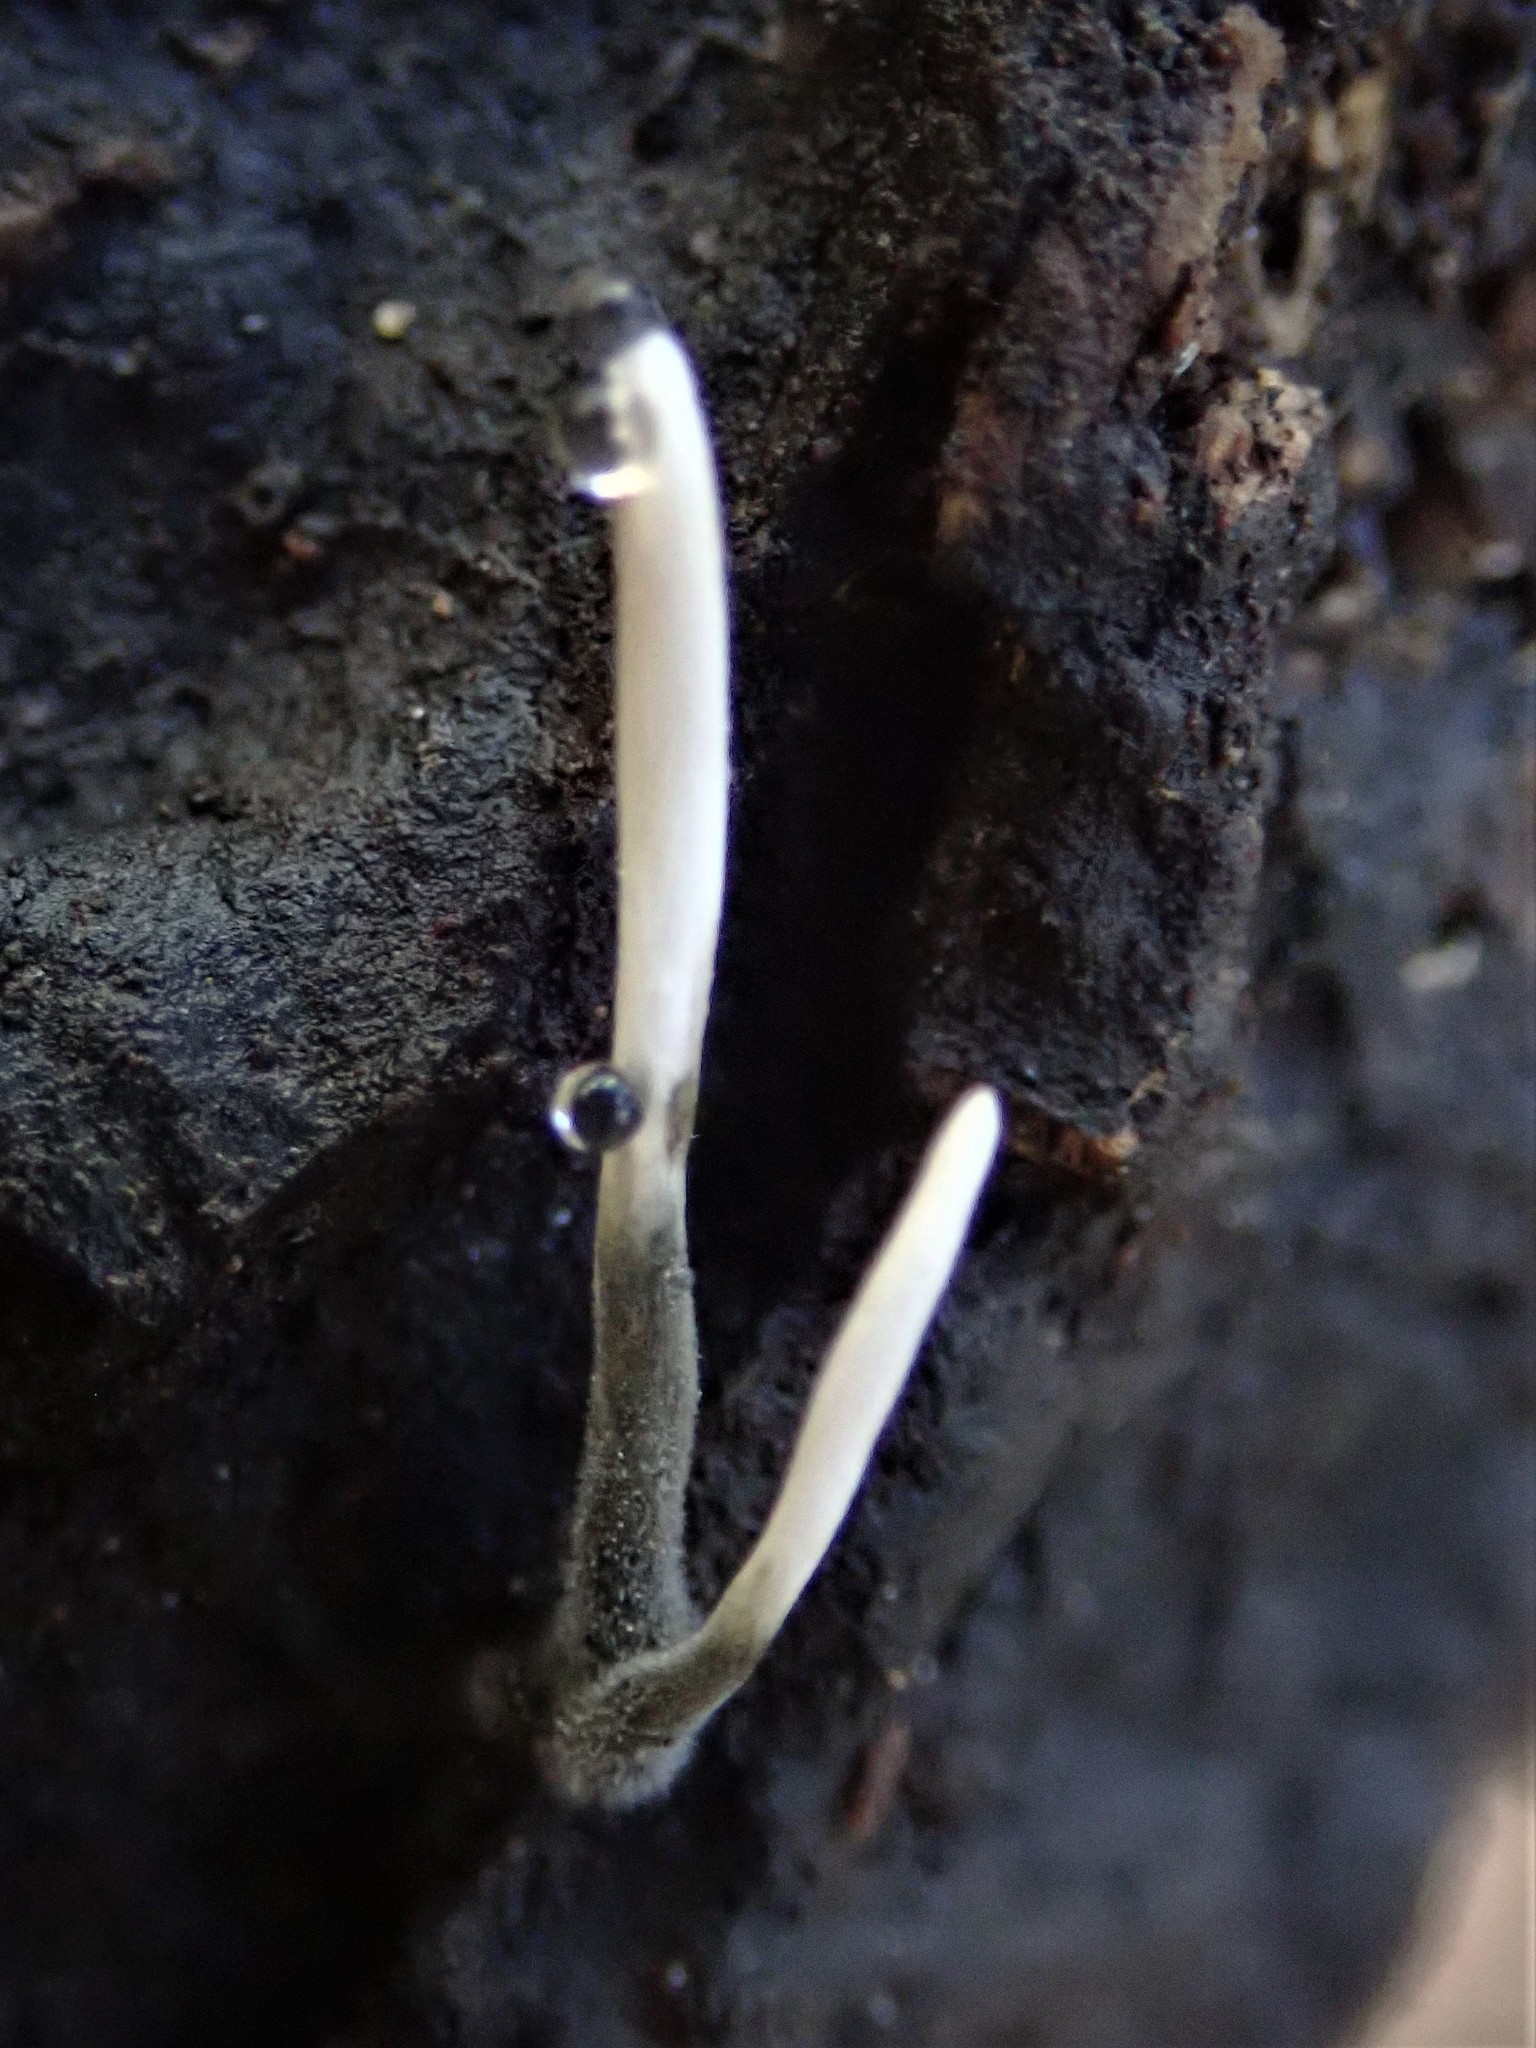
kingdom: Fungi
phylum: Ascomycota
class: Sordariomycetes
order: Xylariales
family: Xylariaceae
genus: Xylaria
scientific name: Xylaria hypoxylon
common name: Candle-snuff fungus
